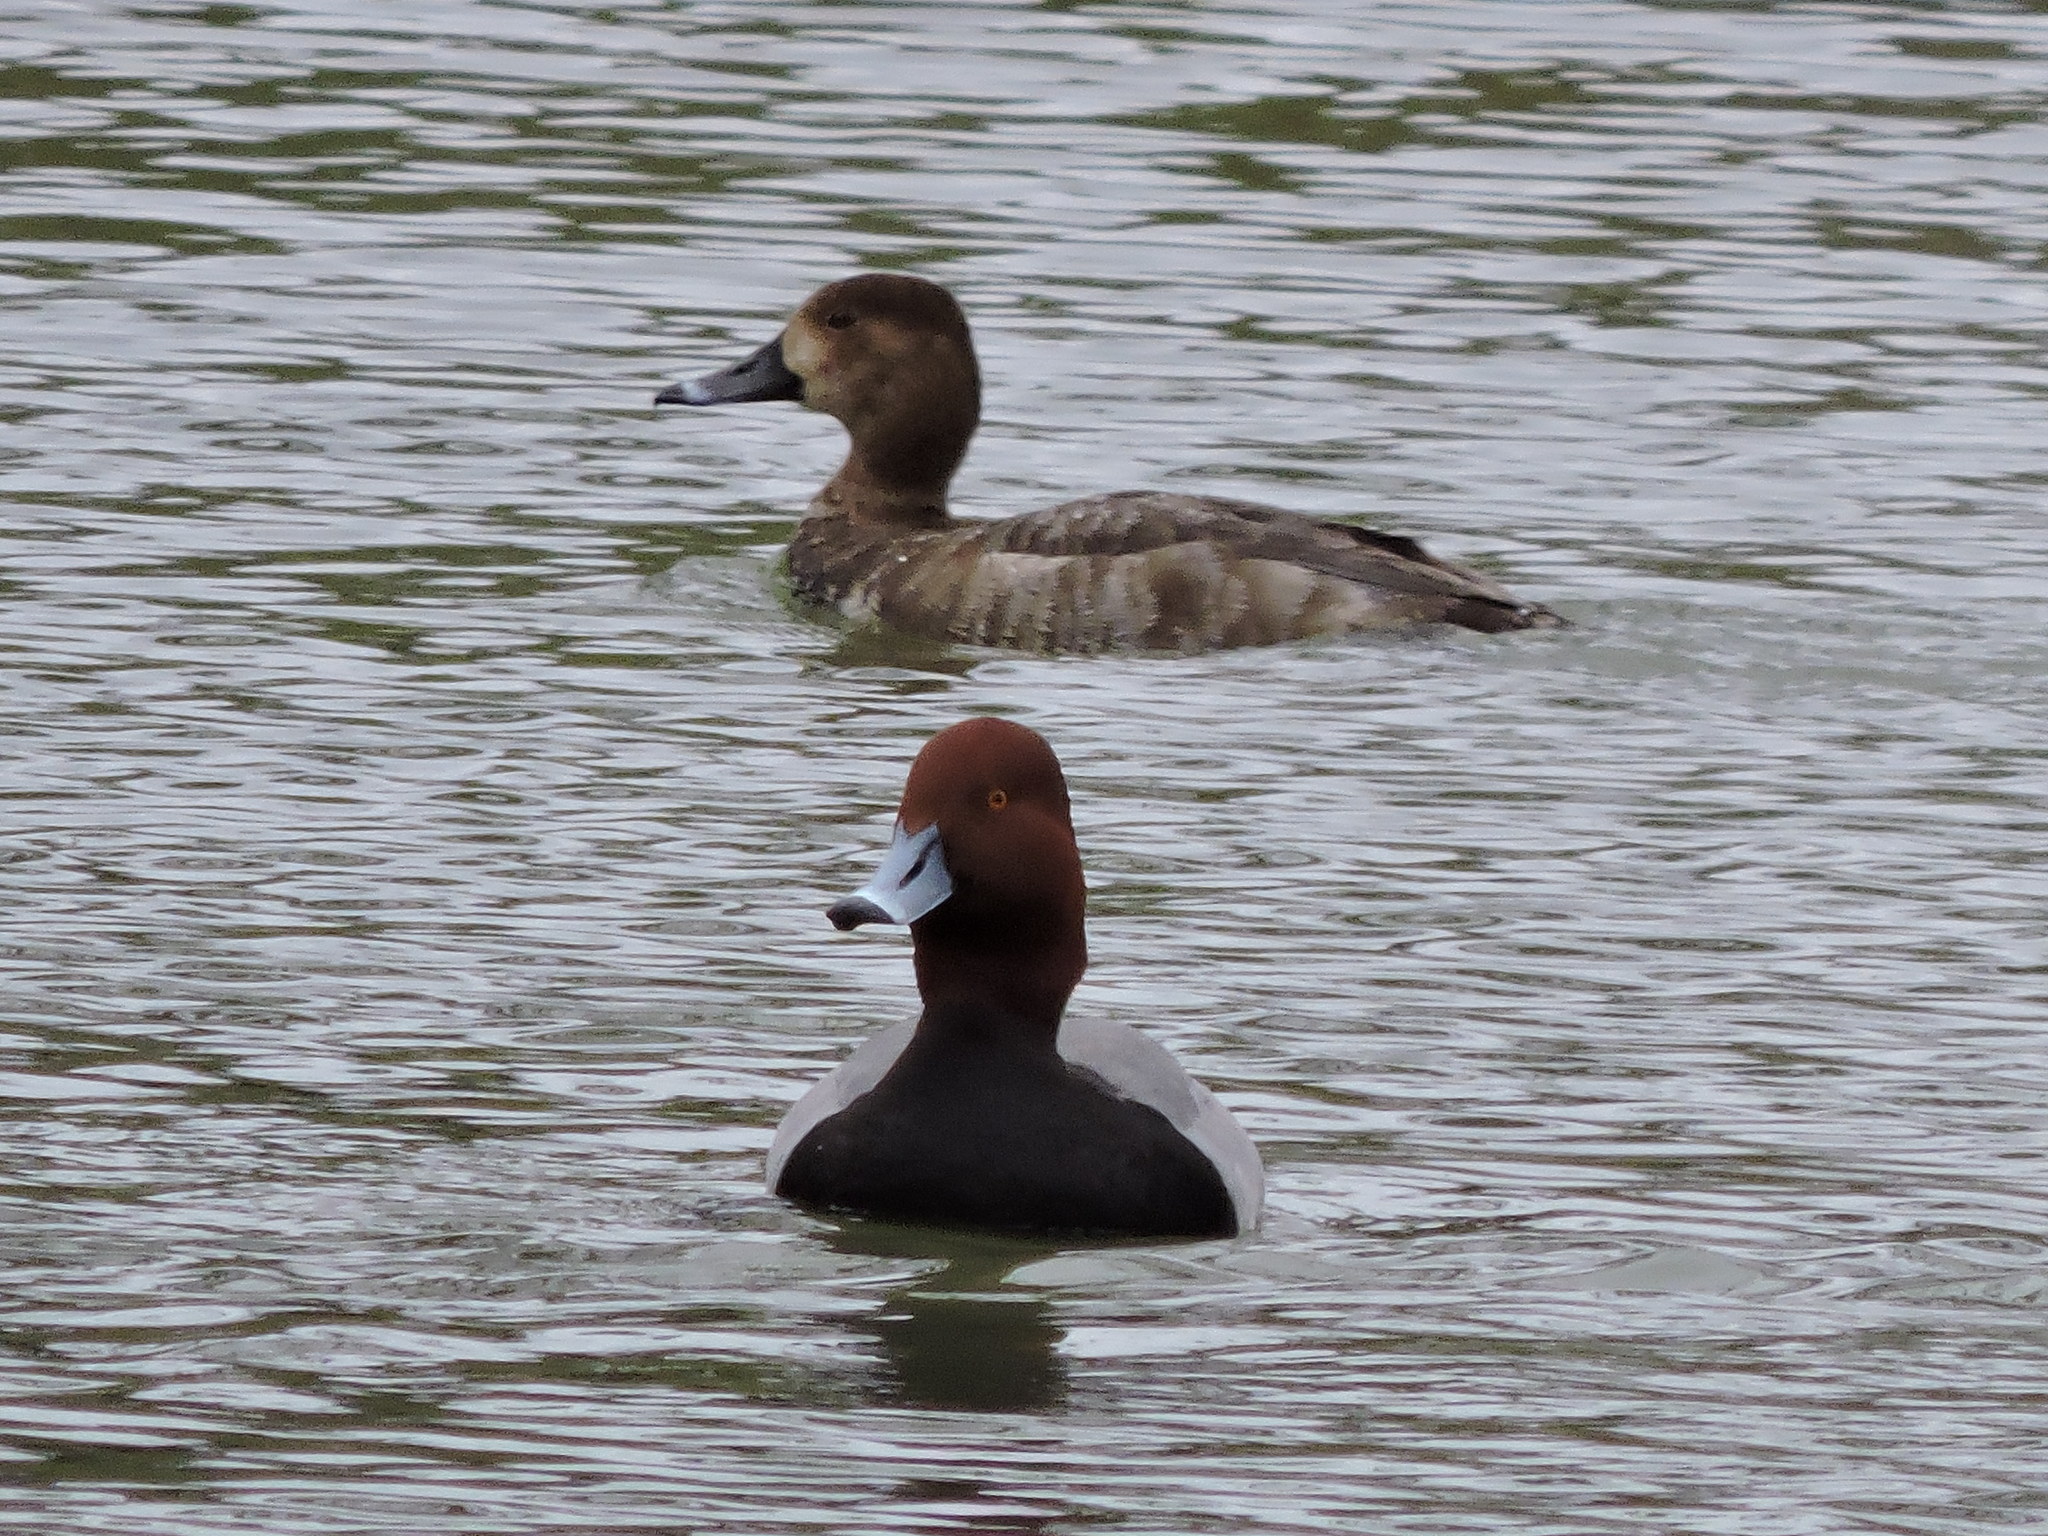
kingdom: Animalia
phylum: Chordata
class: Aves
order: Anseriformes
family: Anatidae
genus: Aythya
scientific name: Aythya americana
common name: Redhead
